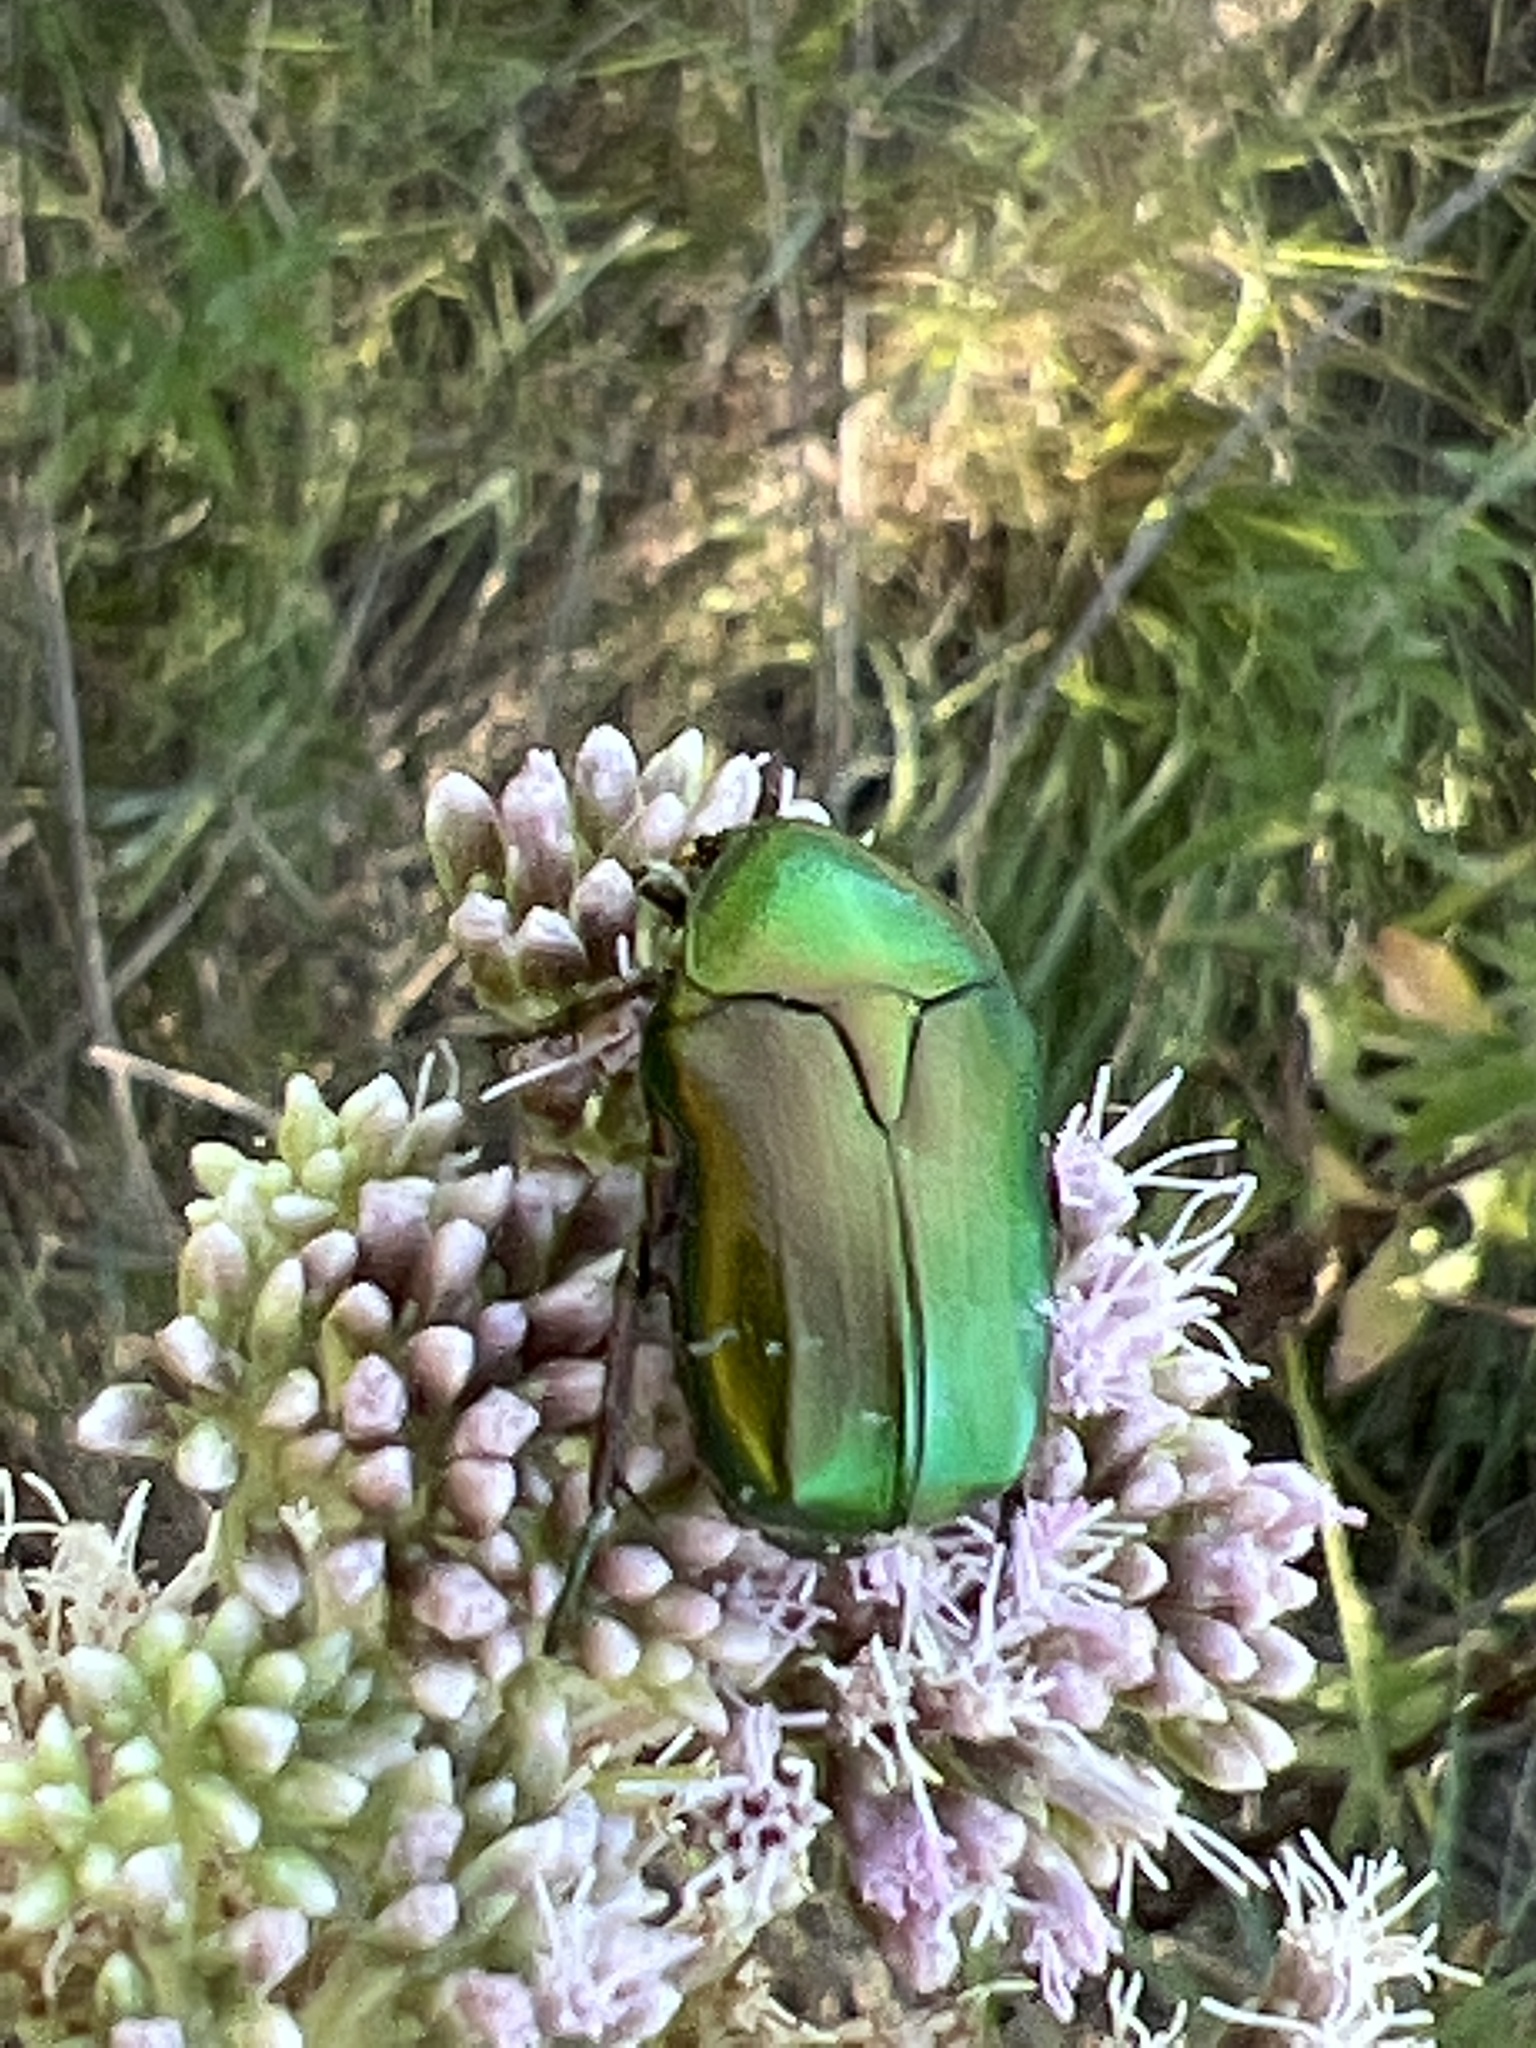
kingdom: Animalia
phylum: Arthropoda
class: Insecta
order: Coleoptera
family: Scarabaeidae
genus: Cetonia
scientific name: Cetonia aurata
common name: Rose chafer
